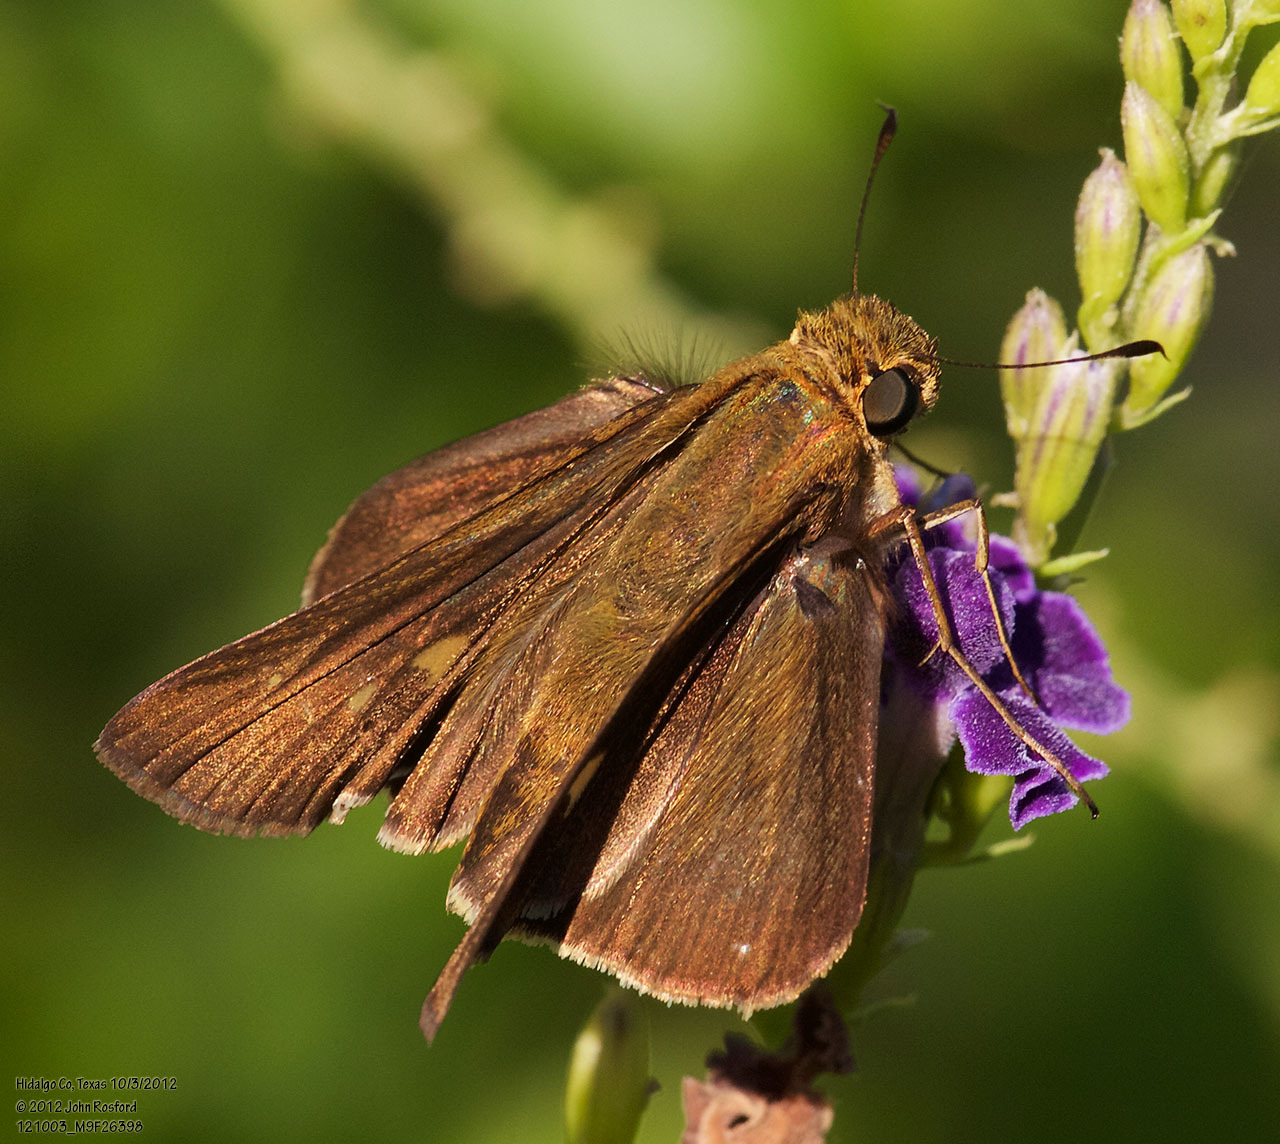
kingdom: Animalia
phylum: Arthropoda
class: Insecta
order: Lepidoptera
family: Hesperiidae
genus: Panoquina
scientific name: Panoquina ocola
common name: Ocola skipper
